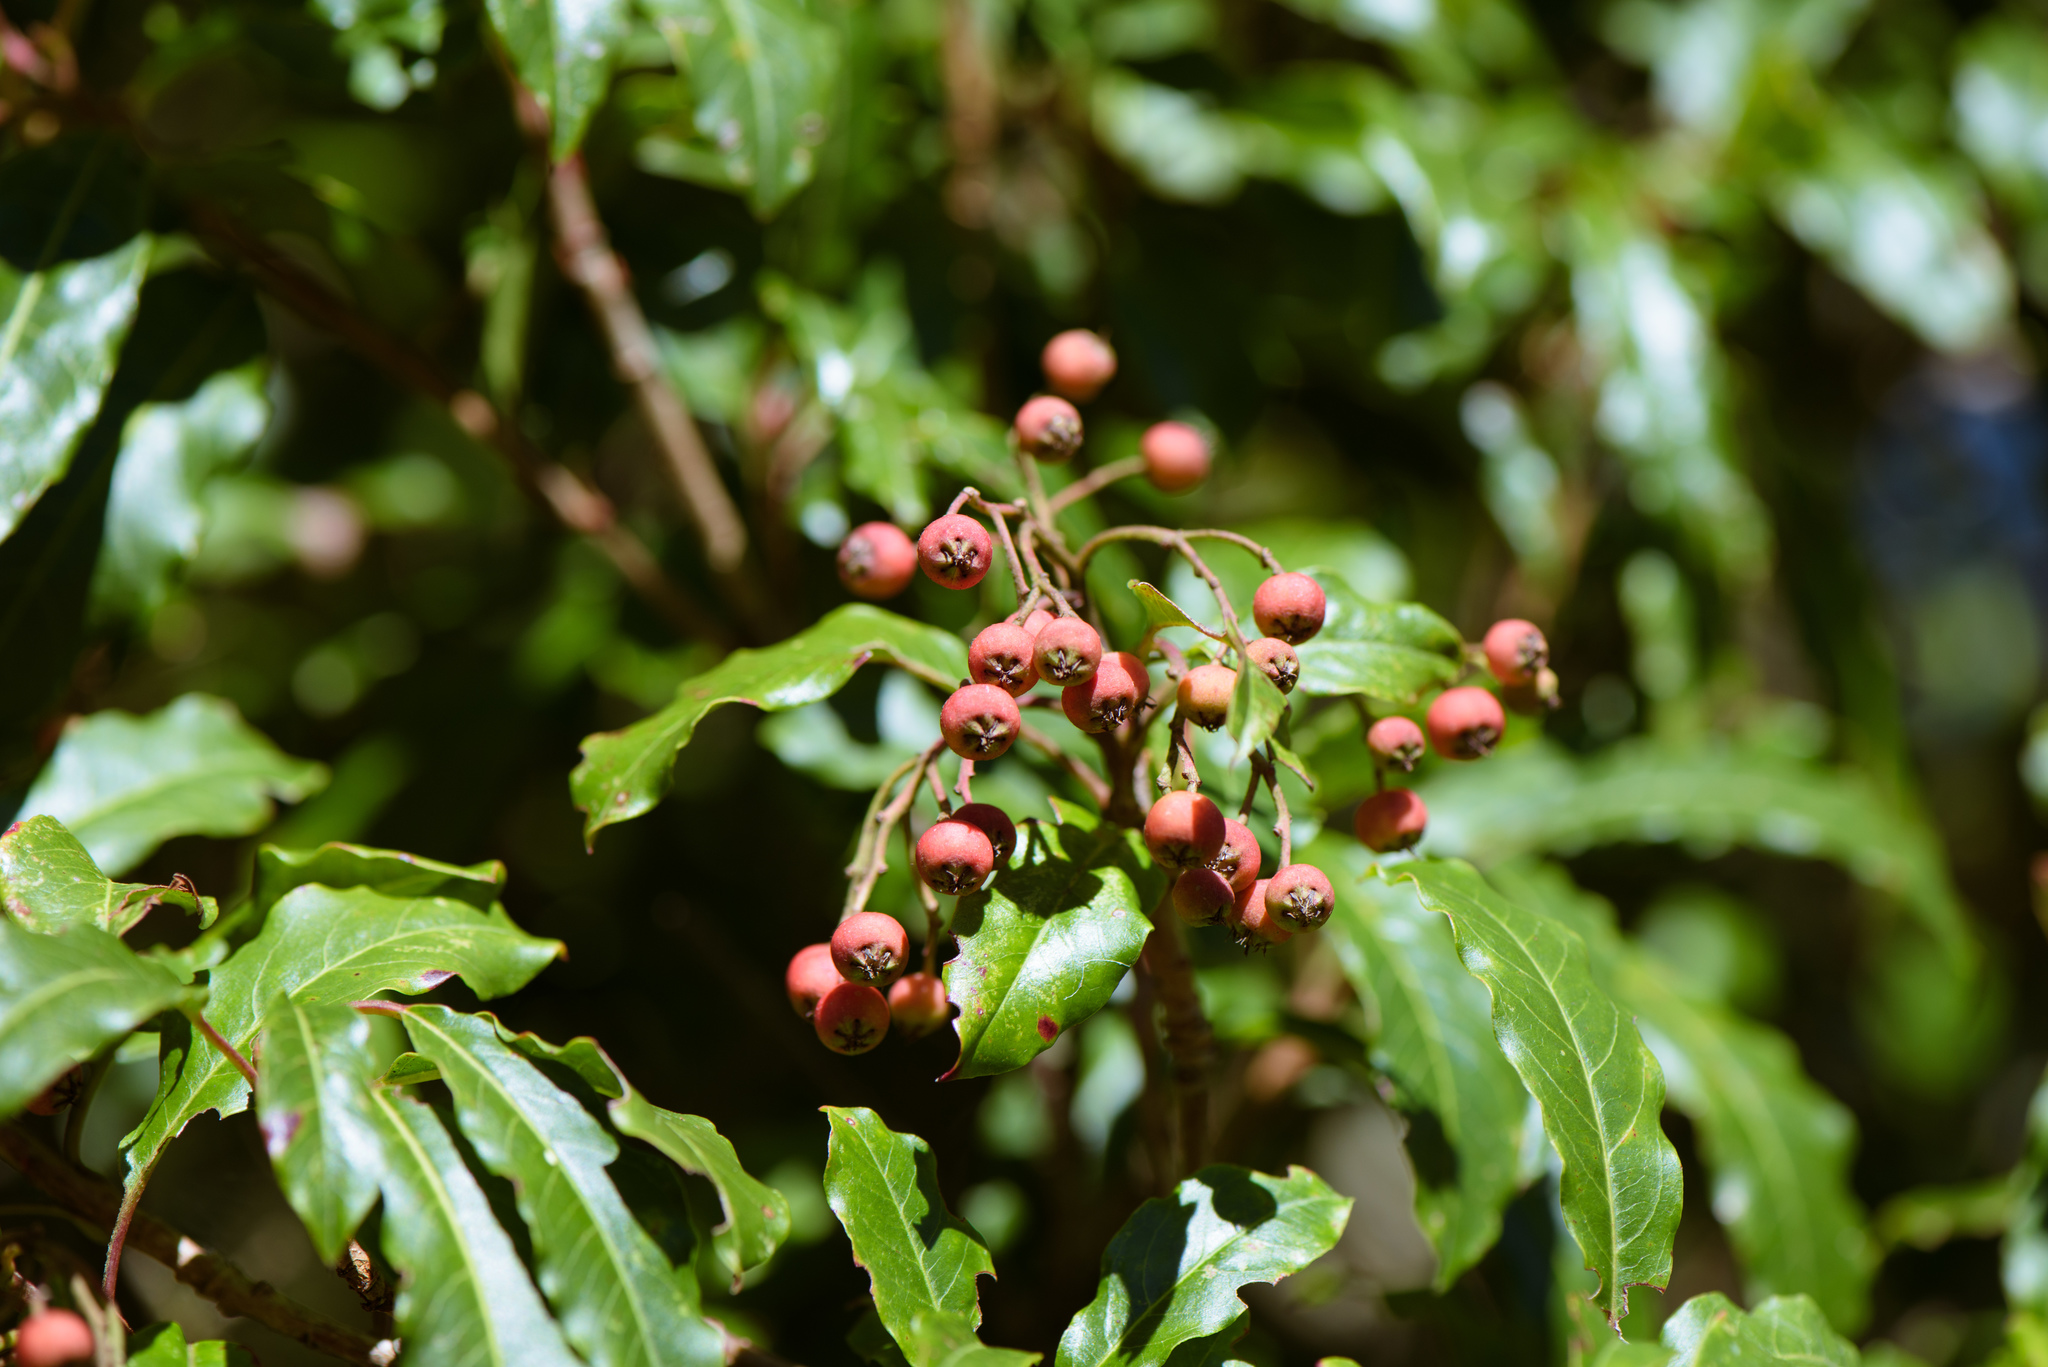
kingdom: Plantae
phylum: Tracheophyta
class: Magnoliopsida
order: Rosales
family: Rosaceae
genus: Stranvaesia
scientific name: Stranvaesia davidiana
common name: Chinese photinia
